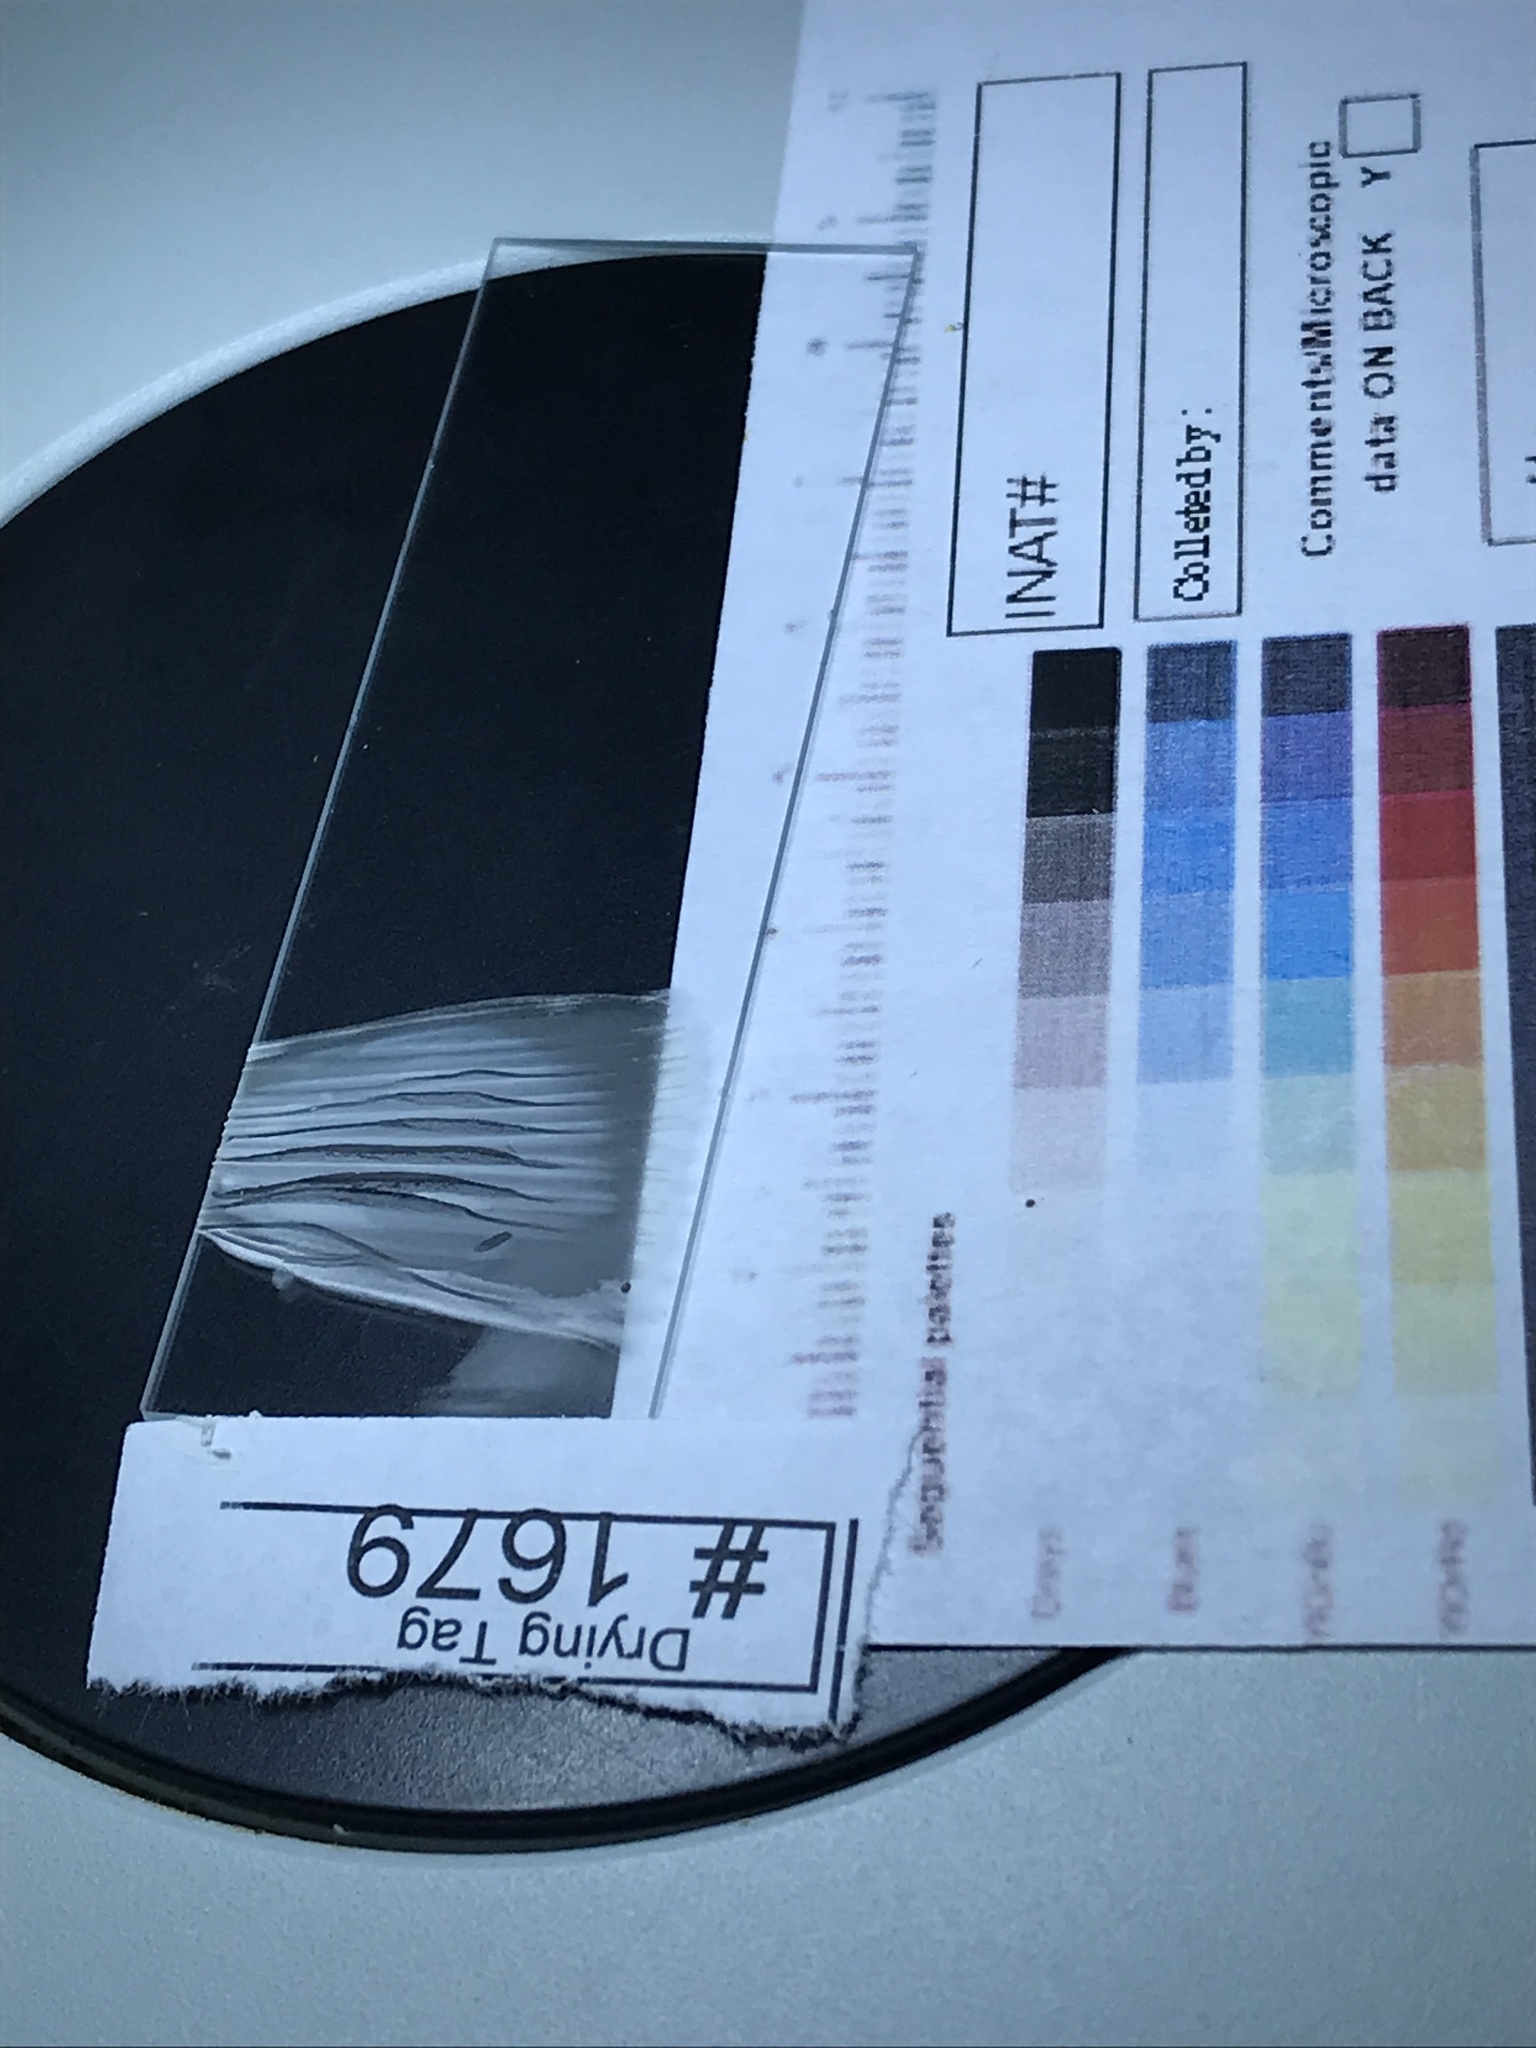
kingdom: Fungi
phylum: Basidiomycota
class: Agaricomycetes
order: Agaricales
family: Amanitaceae
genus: Amanita
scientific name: Amanita muscaria
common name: Fly agaric
